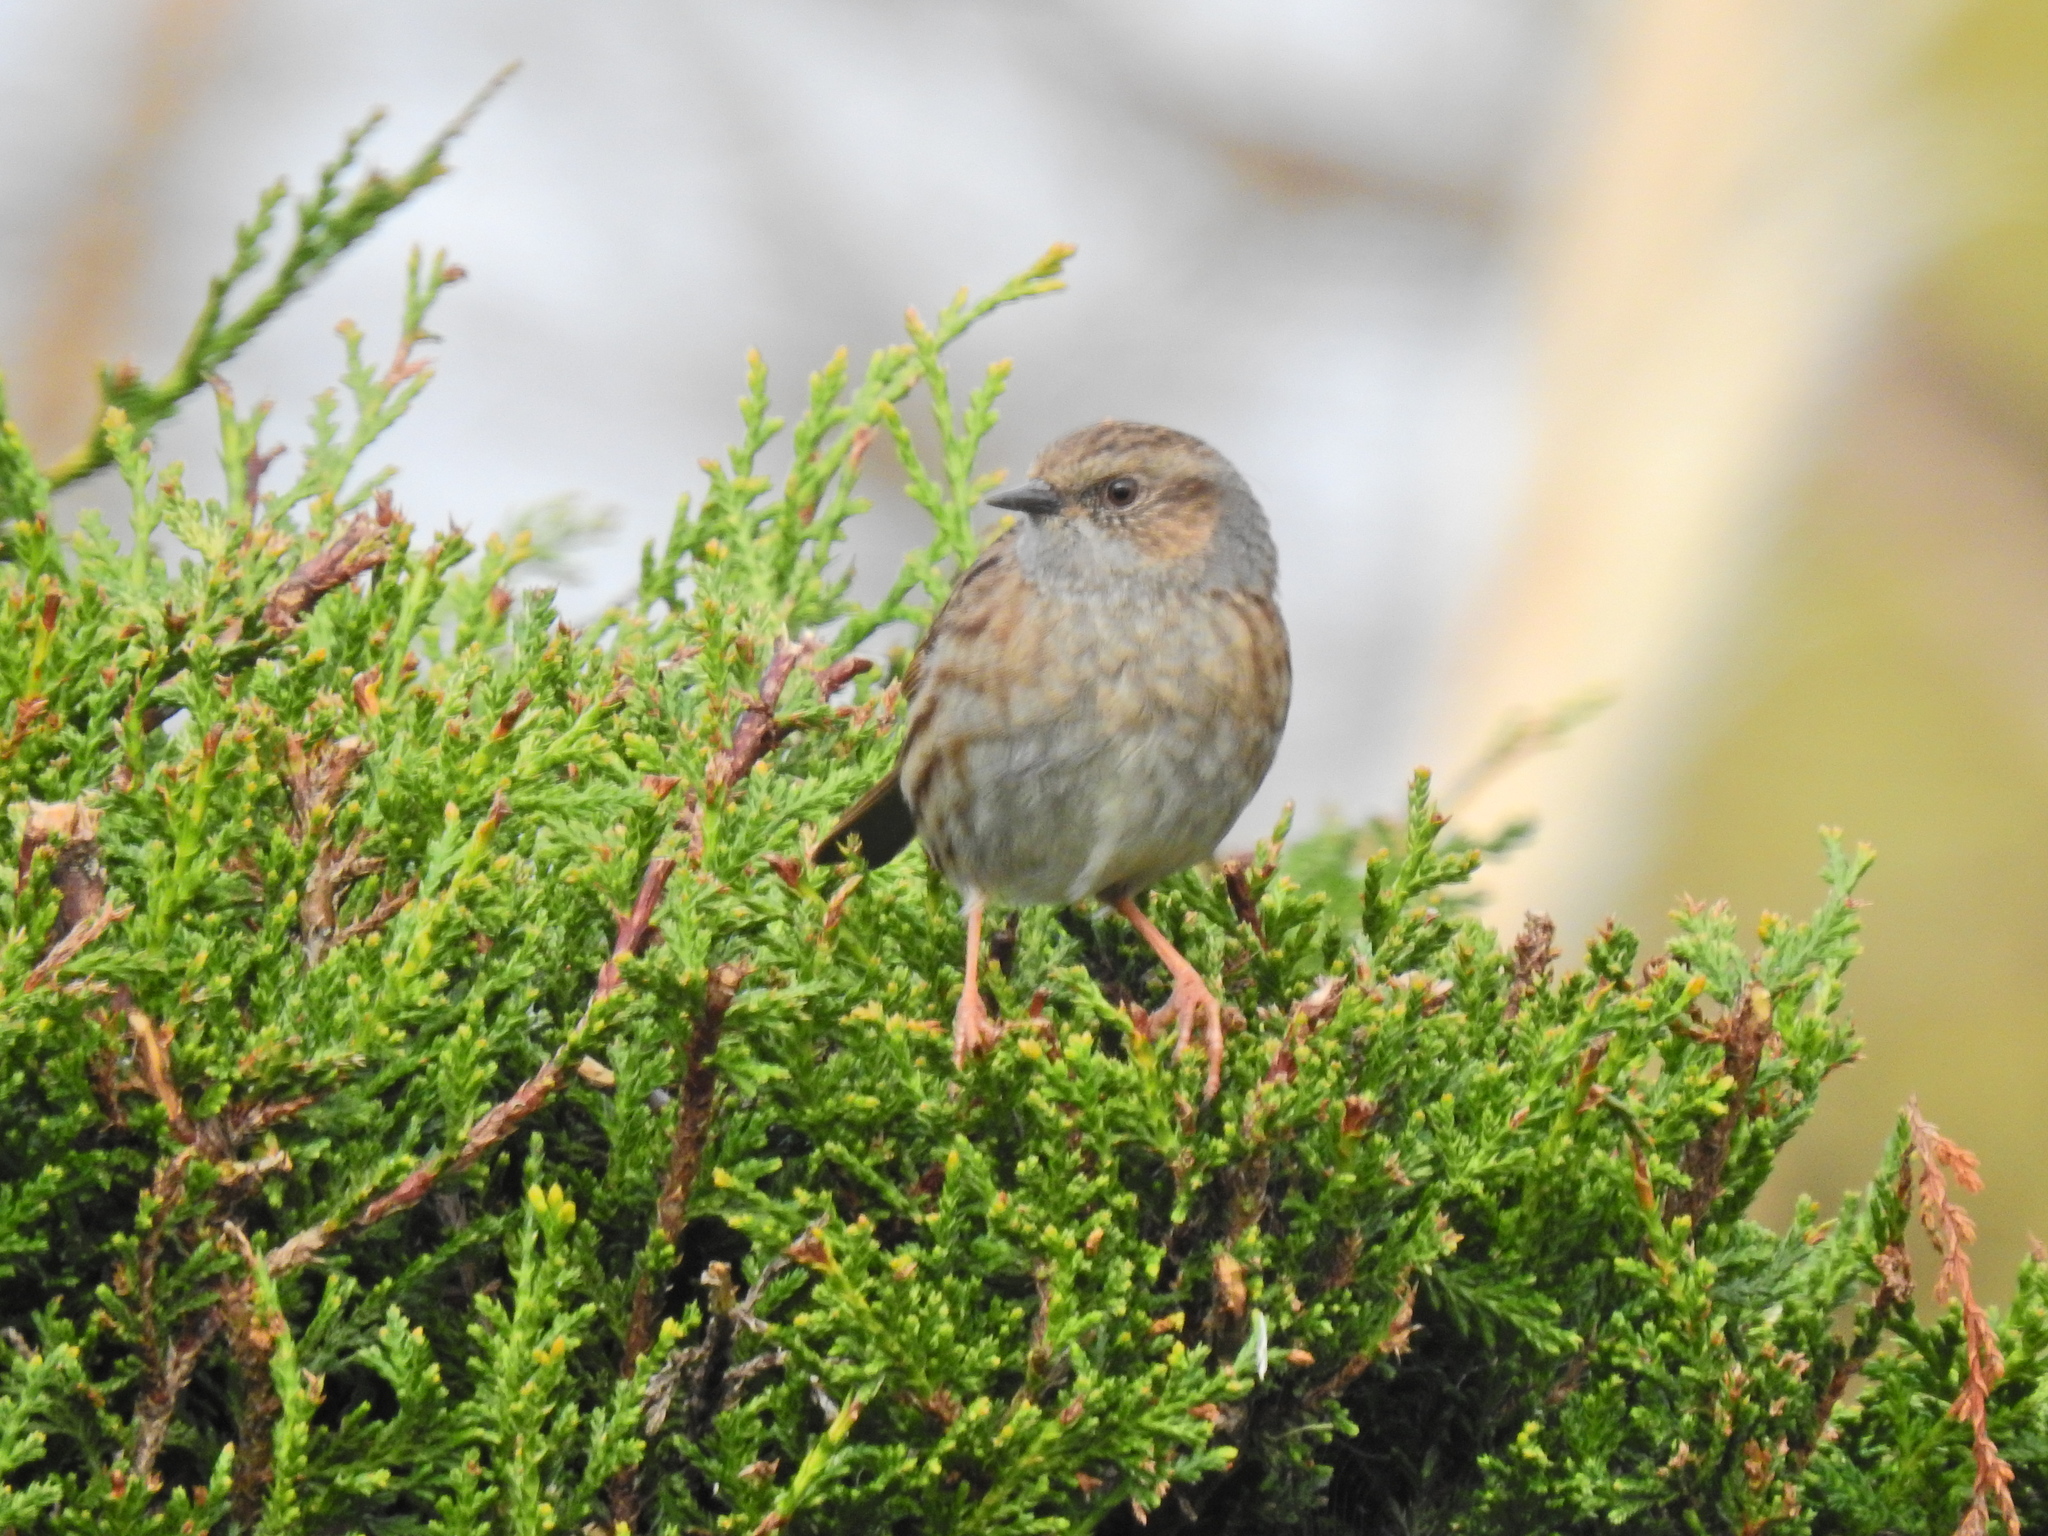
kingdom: Animalia
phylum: Chordata
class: Aves
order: Passeriformes
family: Prunellidae
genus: Prunella
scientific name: Prunella modularis
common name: Dunnock
